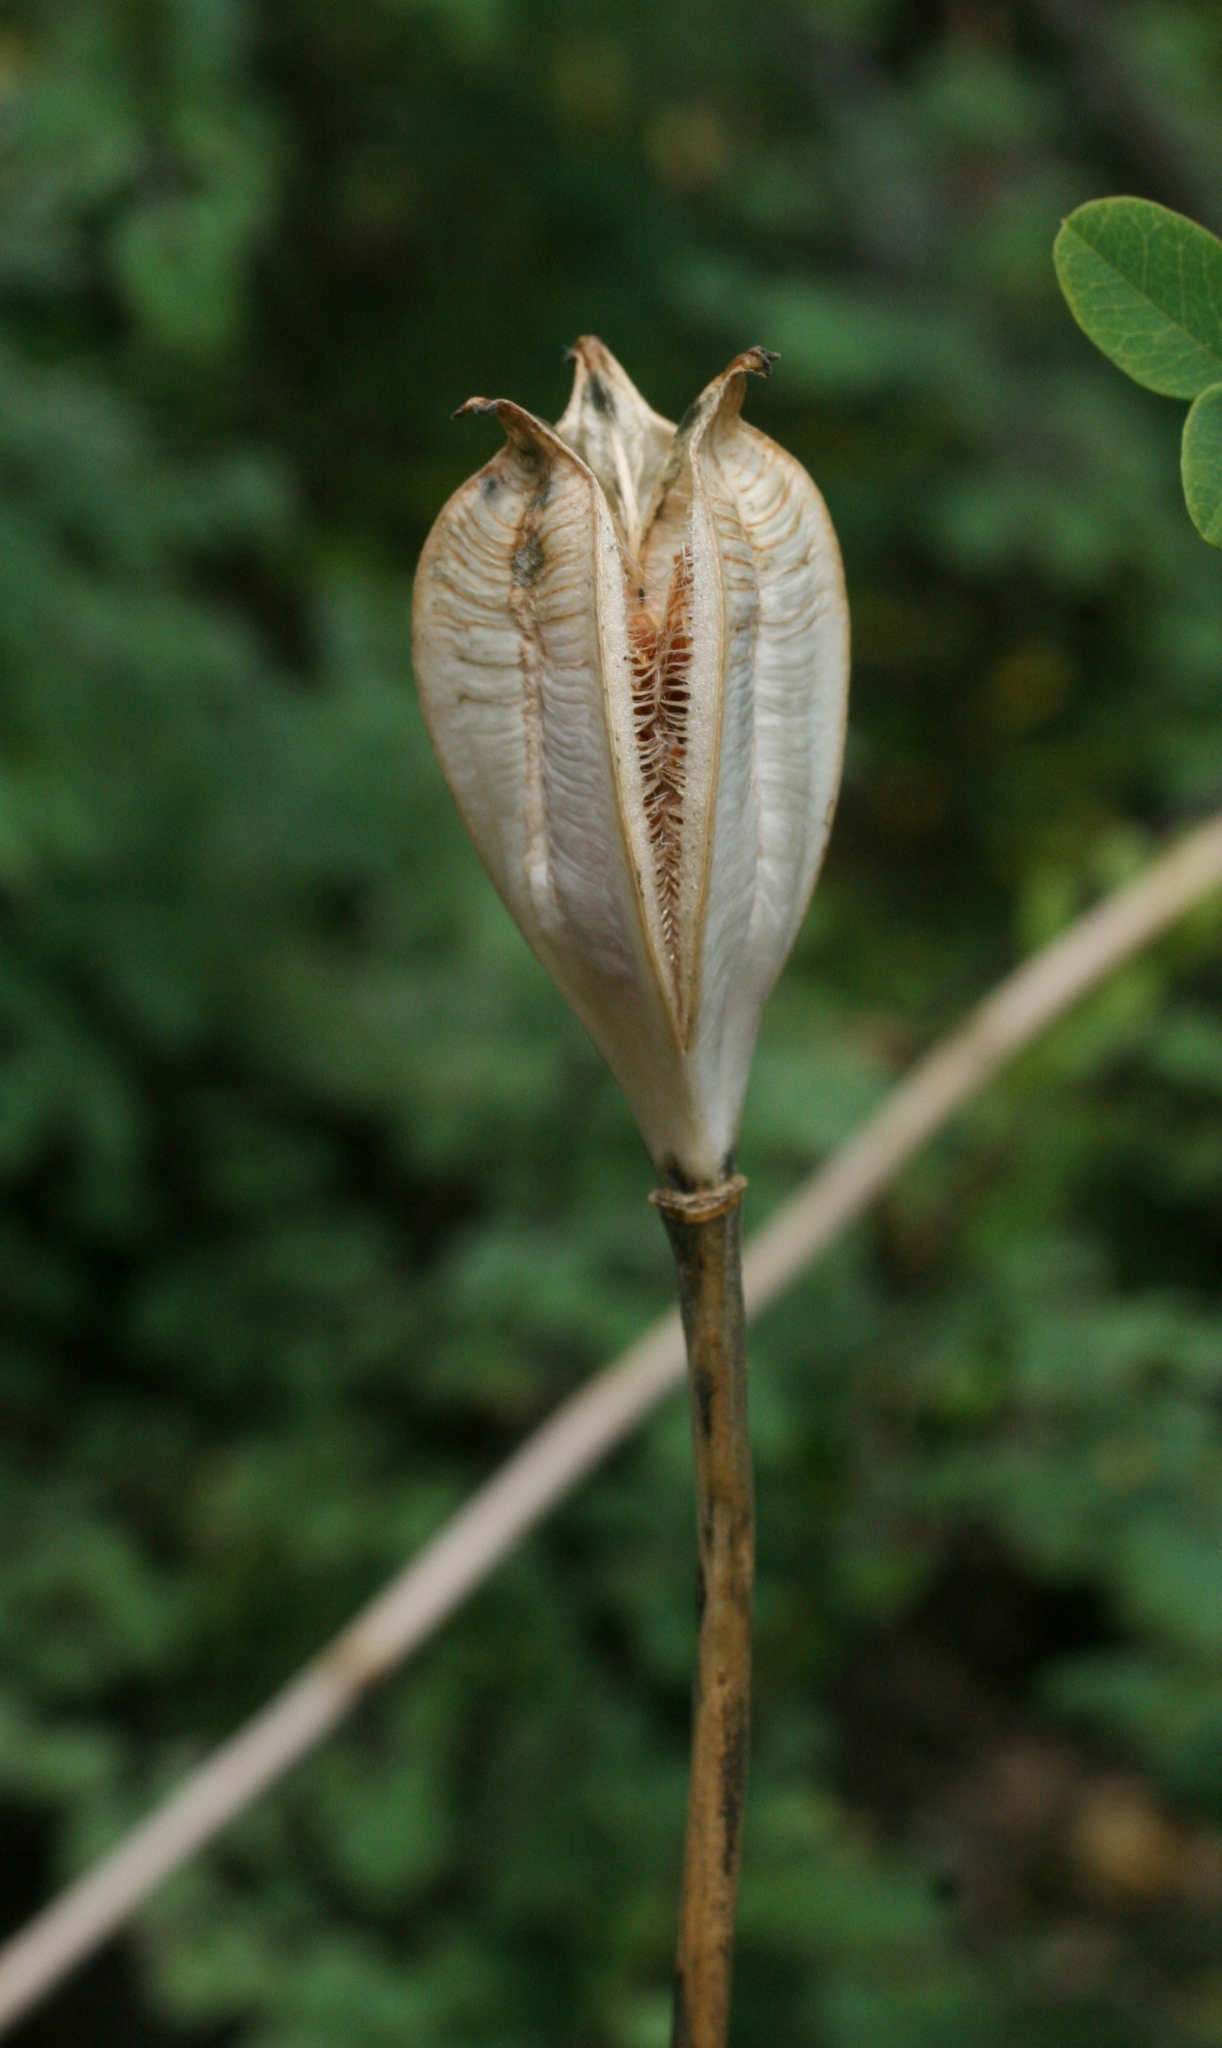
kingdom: Plantae
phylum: Tracheophyta
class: Liliopsida
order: Liliales
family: Liliaceae
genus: Tulipa
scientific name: Tulipa patens
